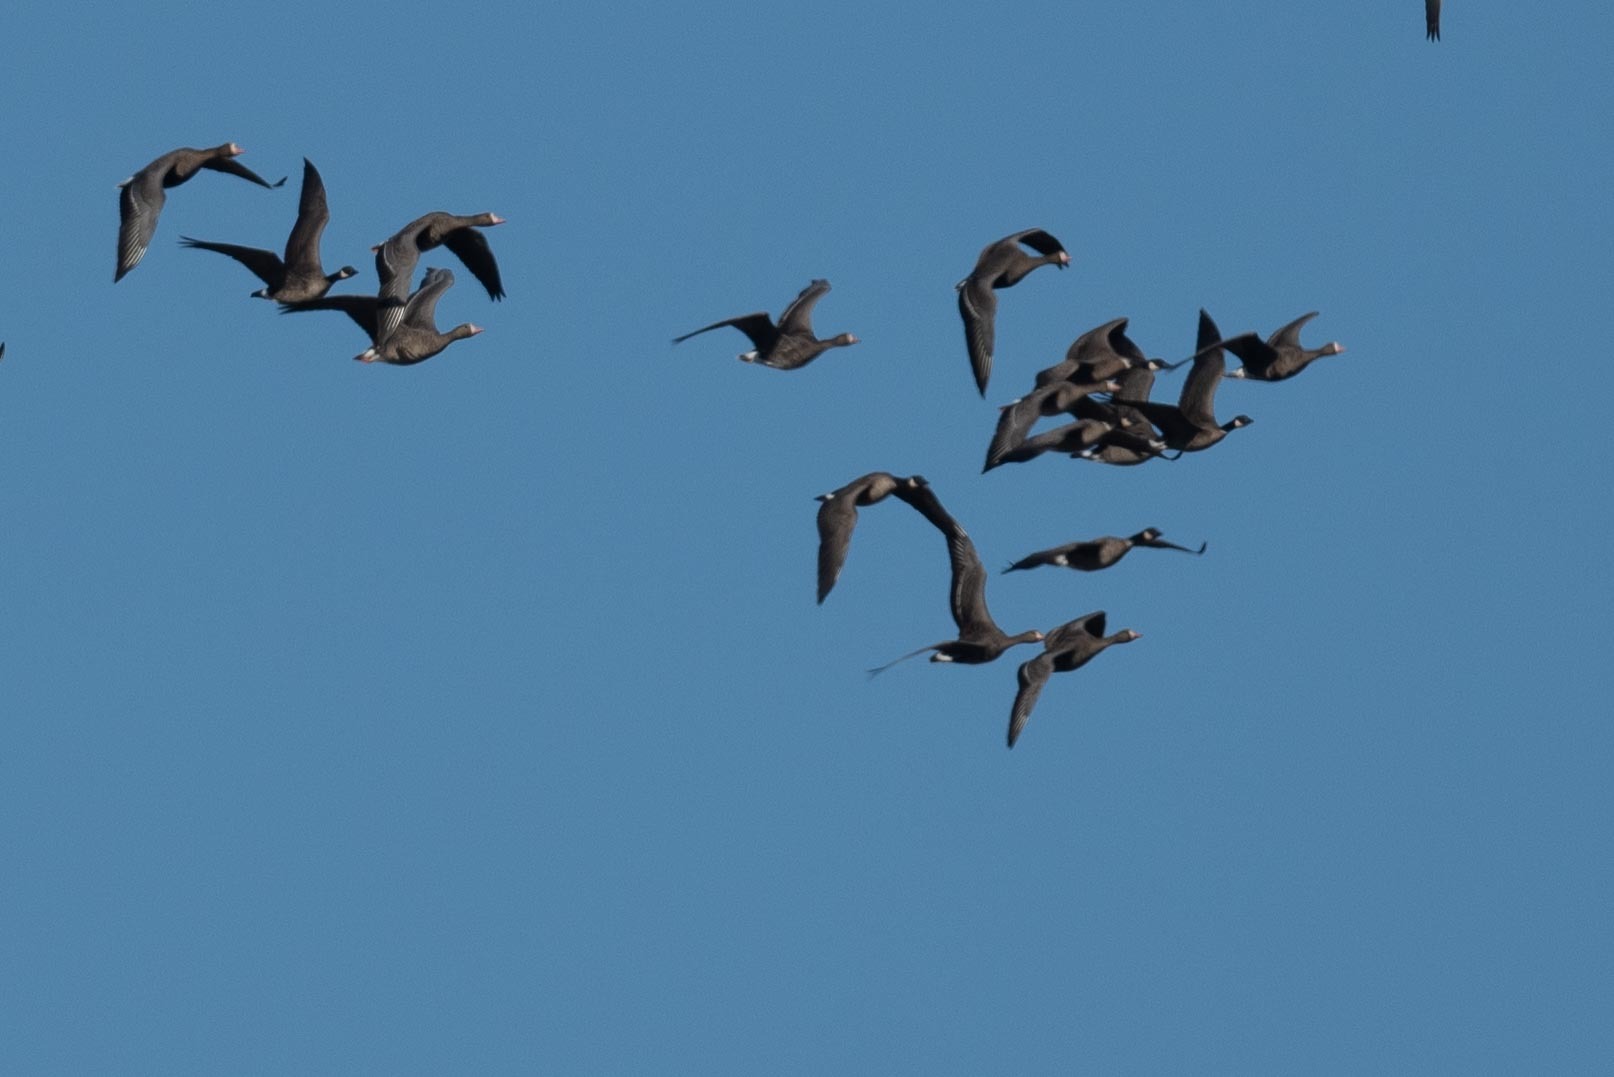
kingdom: Animalia
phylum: Chordata
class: Aves
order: Anseriformes
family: Anatidae
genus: Anser
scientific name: Anser albifrons
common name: Greater white-fronted goose
